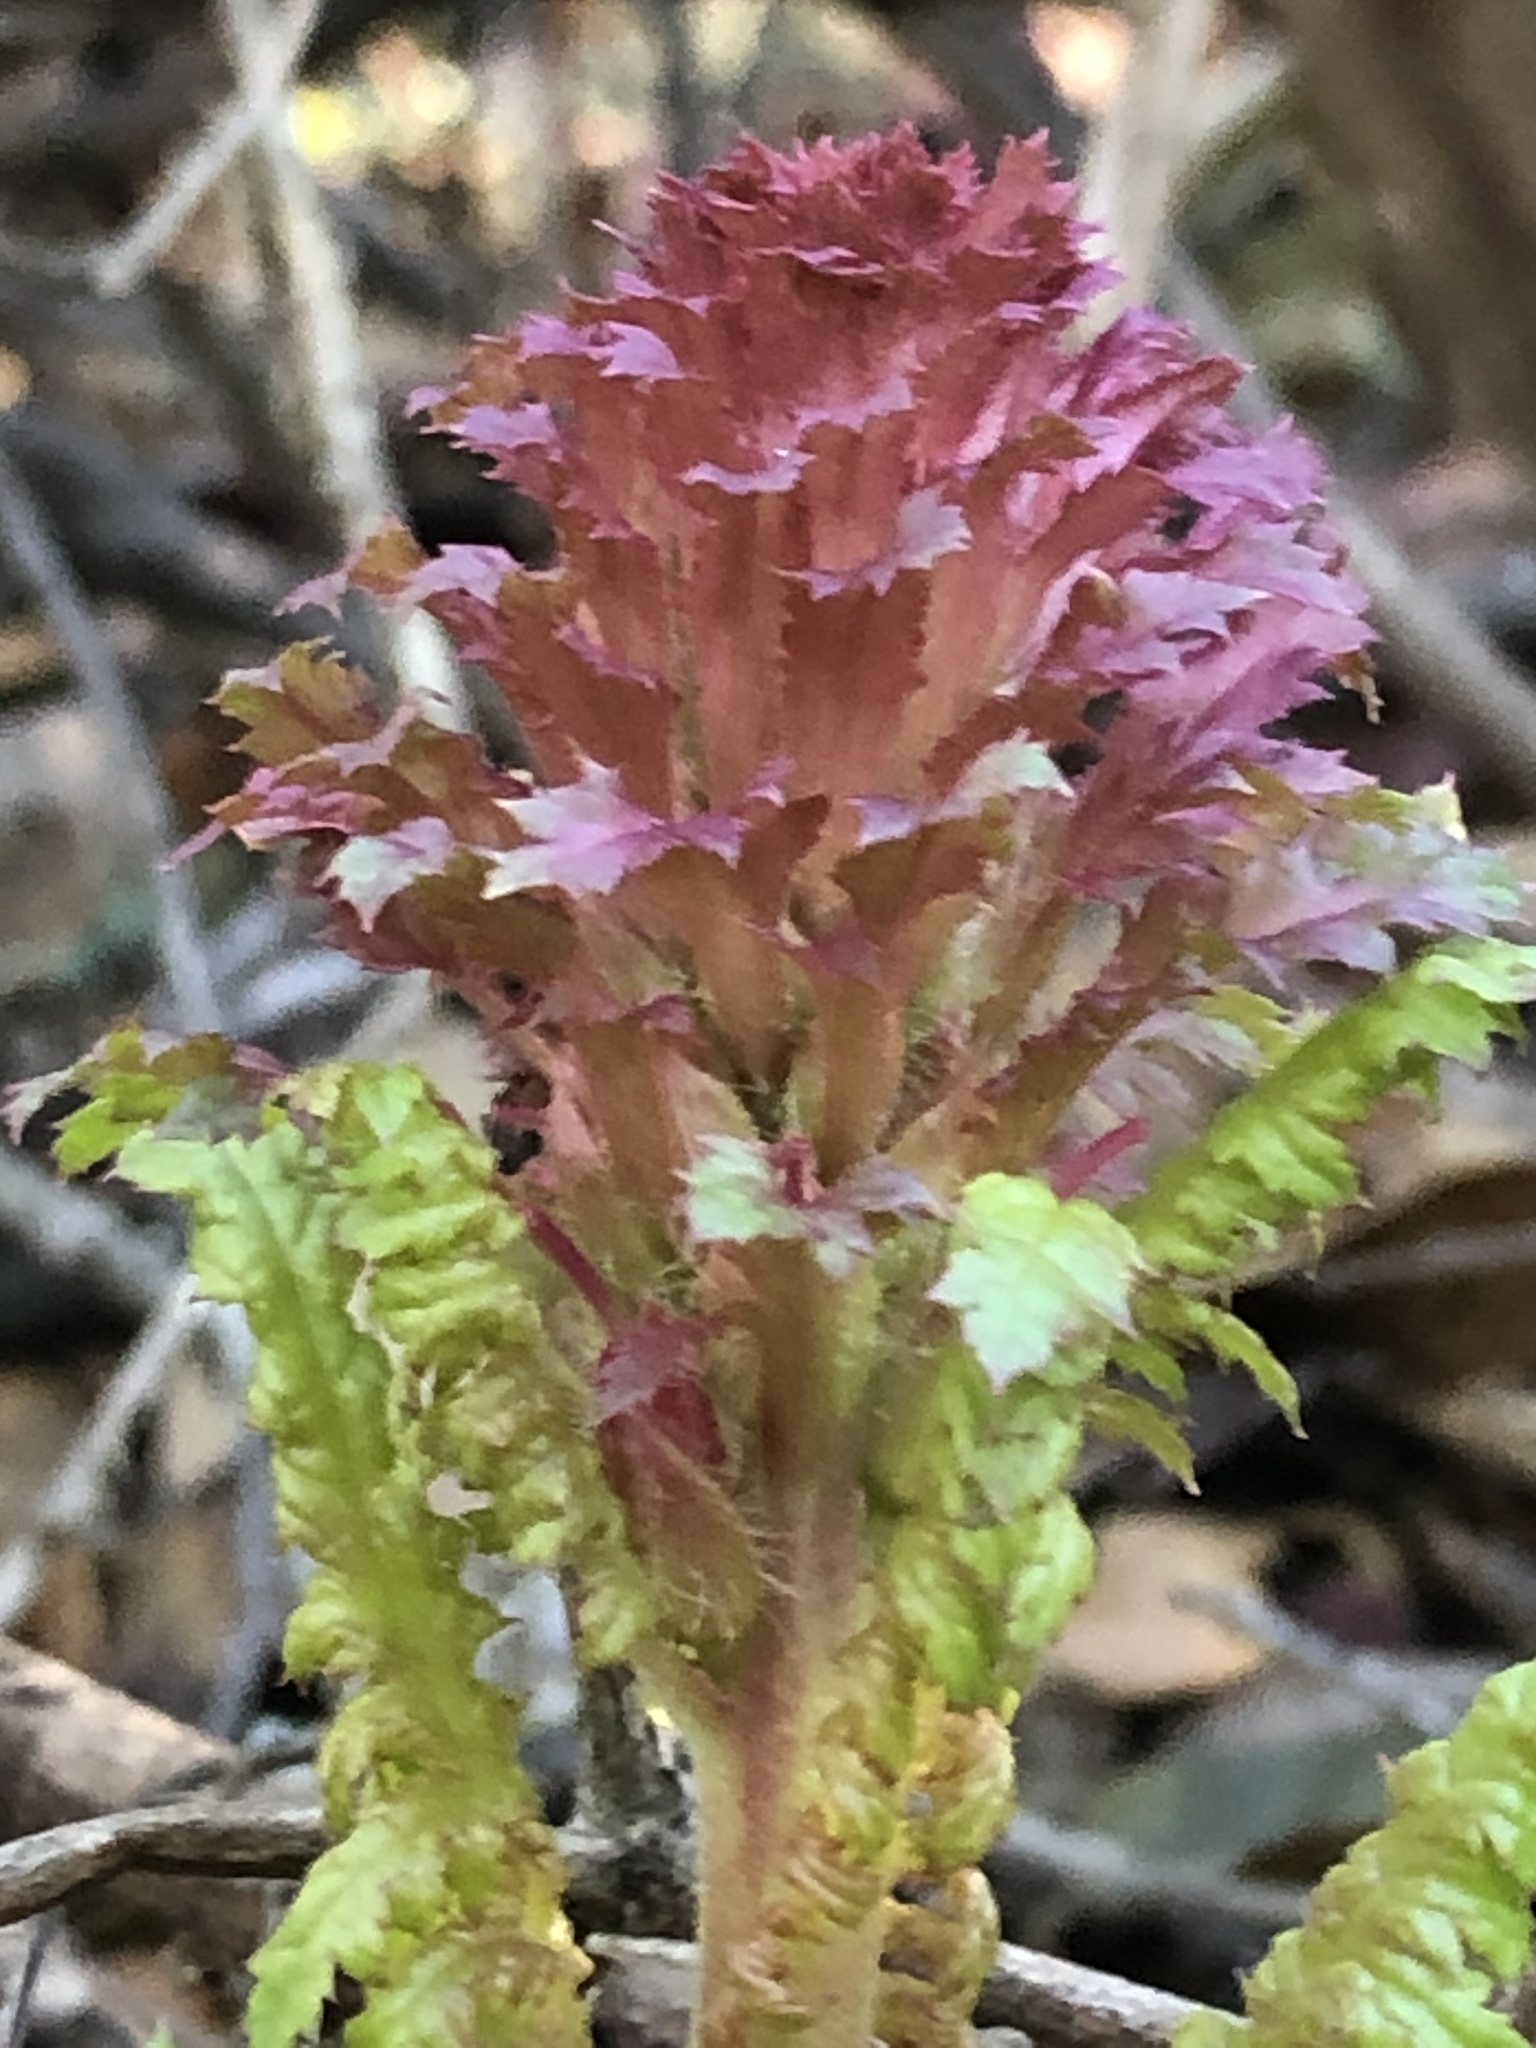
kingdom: Plantae
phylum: Tracheophyta
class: Magnoliopsida
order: Lamiales
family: Orobanchaceae
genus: Pedicularis
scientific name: Pedicularis densiflora
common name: Indian warrior
